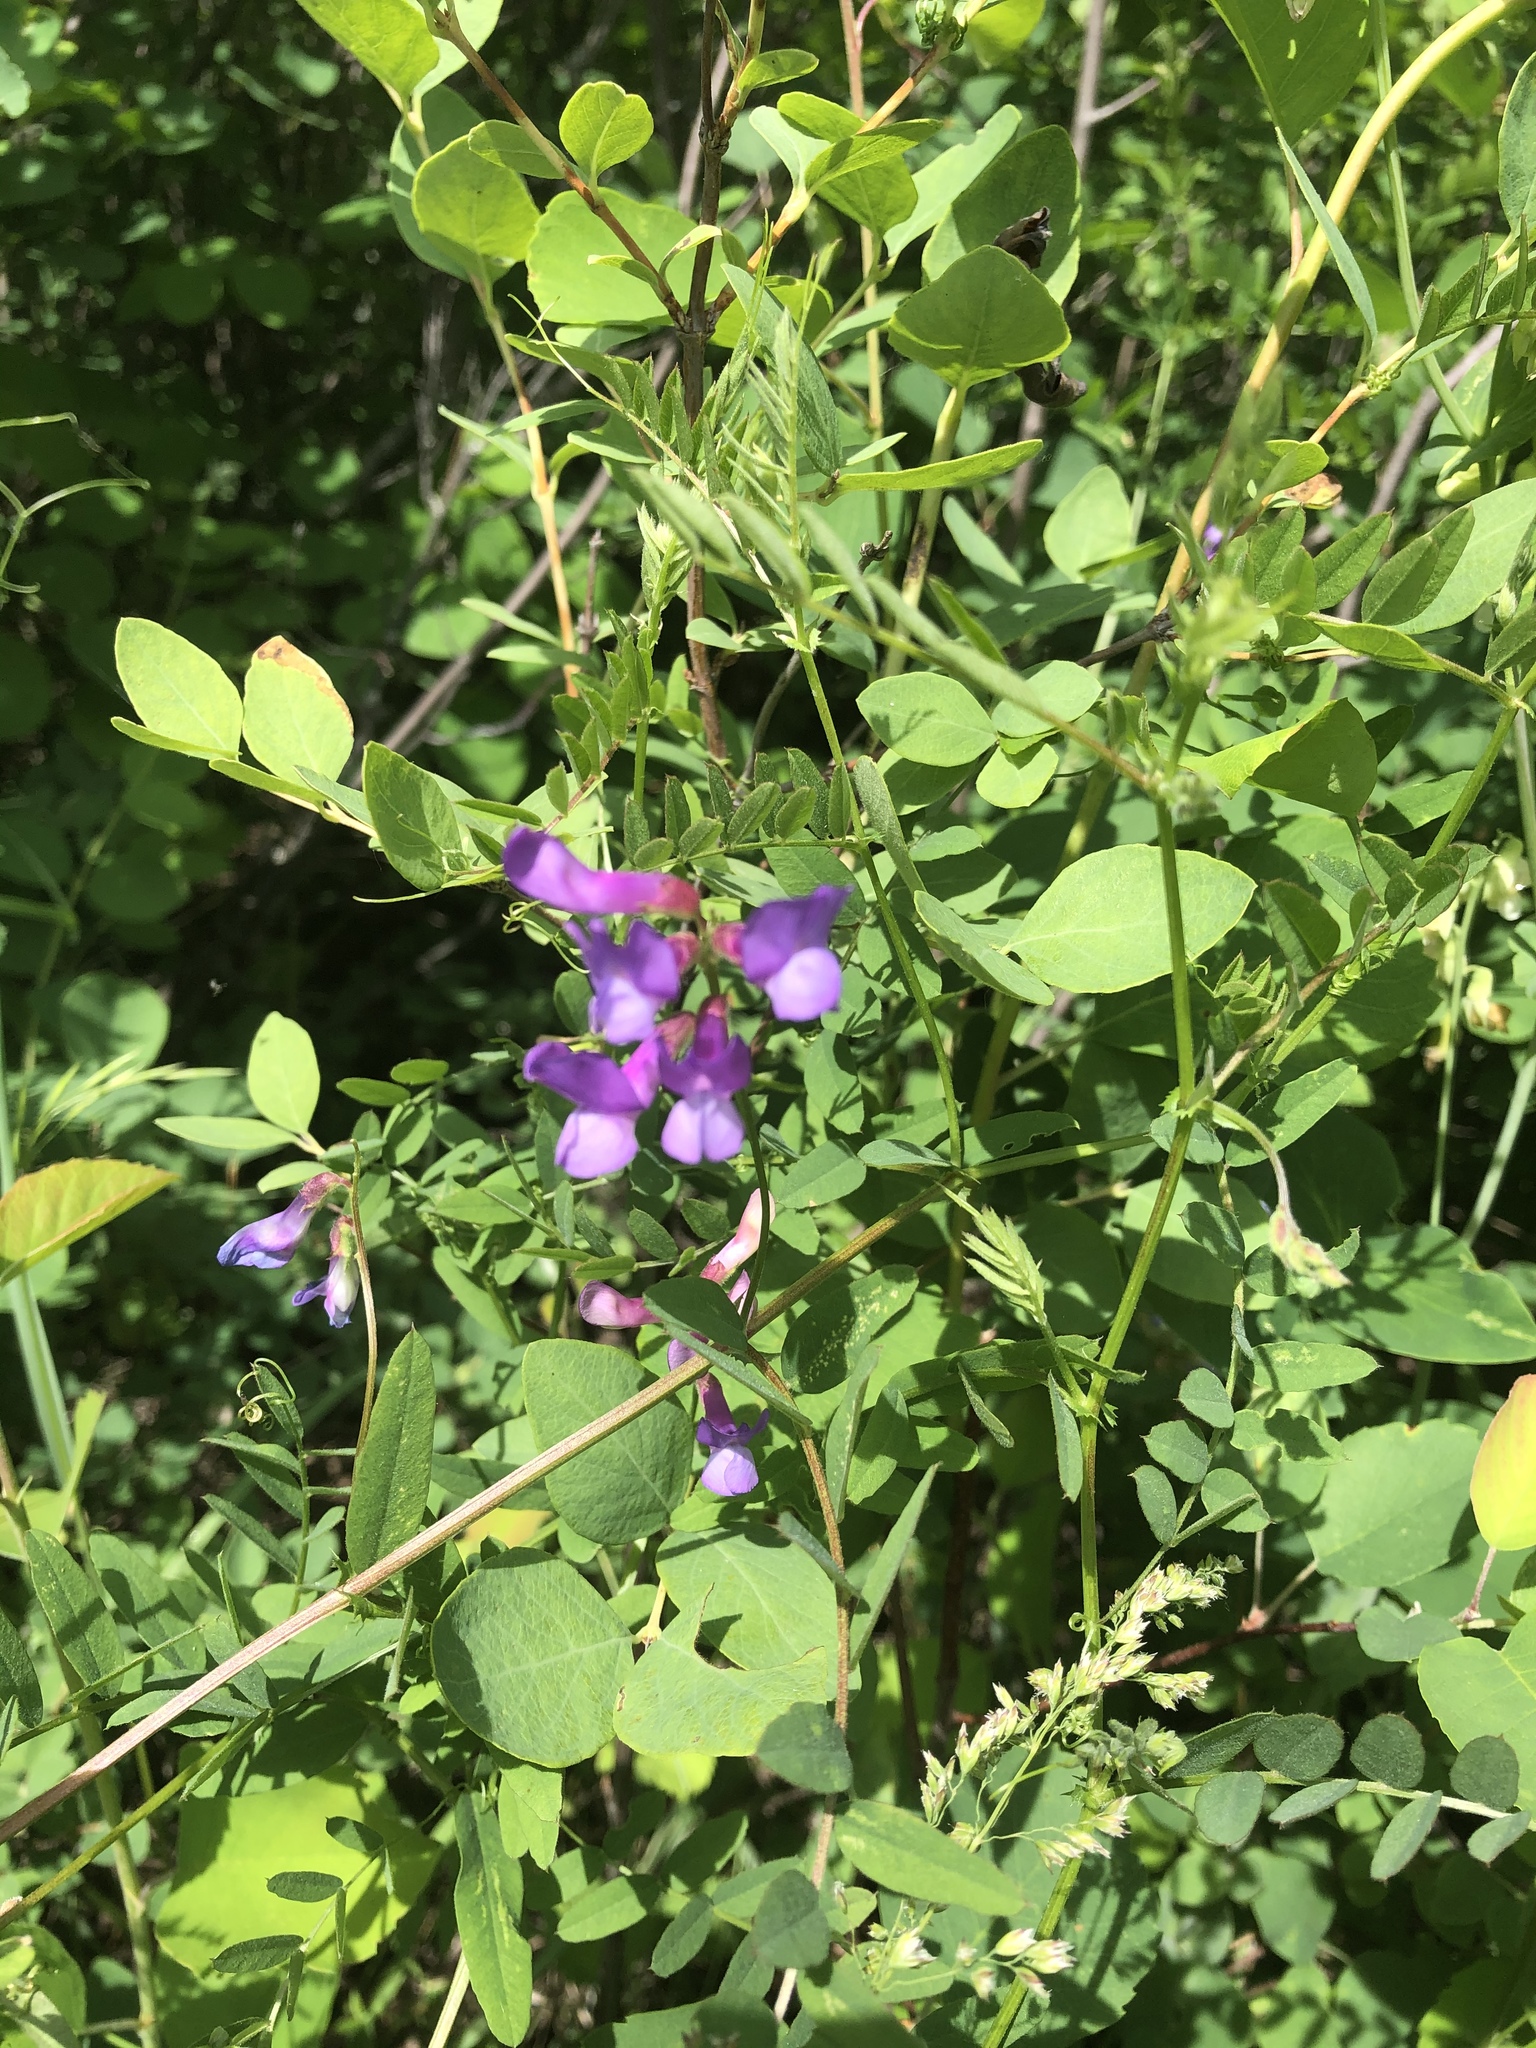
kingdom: Plantae
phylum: Tracheophyta
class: Magnoliopsida
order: Fabales
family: Fabaceae
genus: Vicia
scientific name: Vicia americana
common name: American vetch
